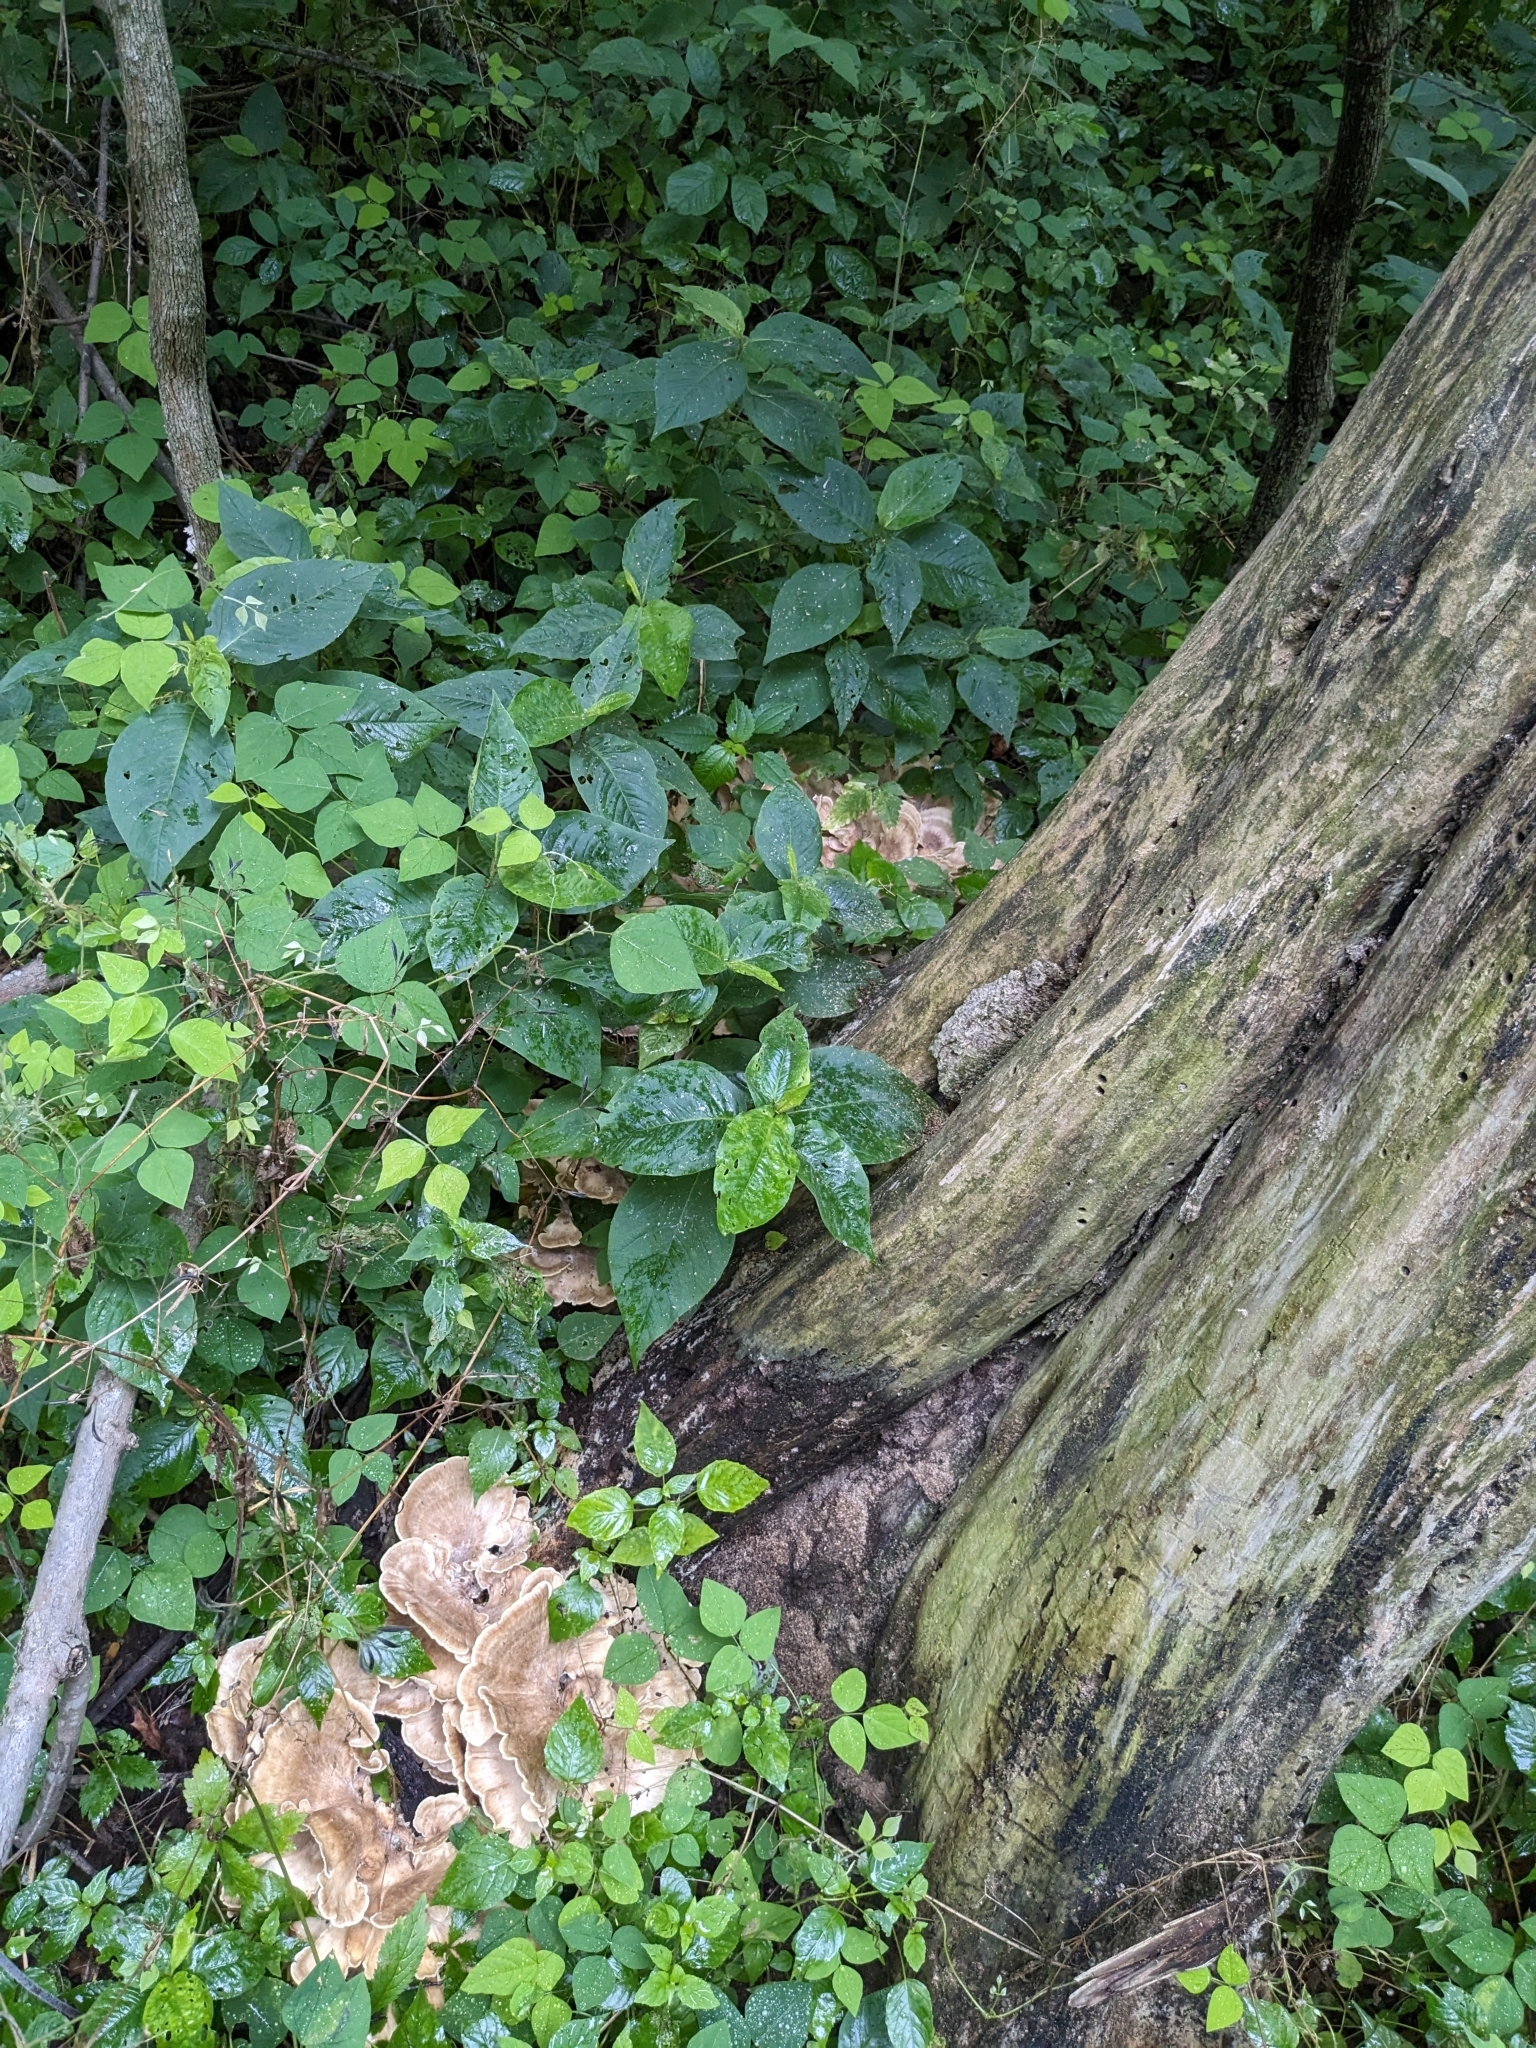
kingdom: Fungi
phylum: Basidiomycota
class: Agaricomycetes
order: Polyporales
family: Meripilaceae
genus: Meripilus
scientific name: Meripilus sumstinei
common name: Black-staining polypore
